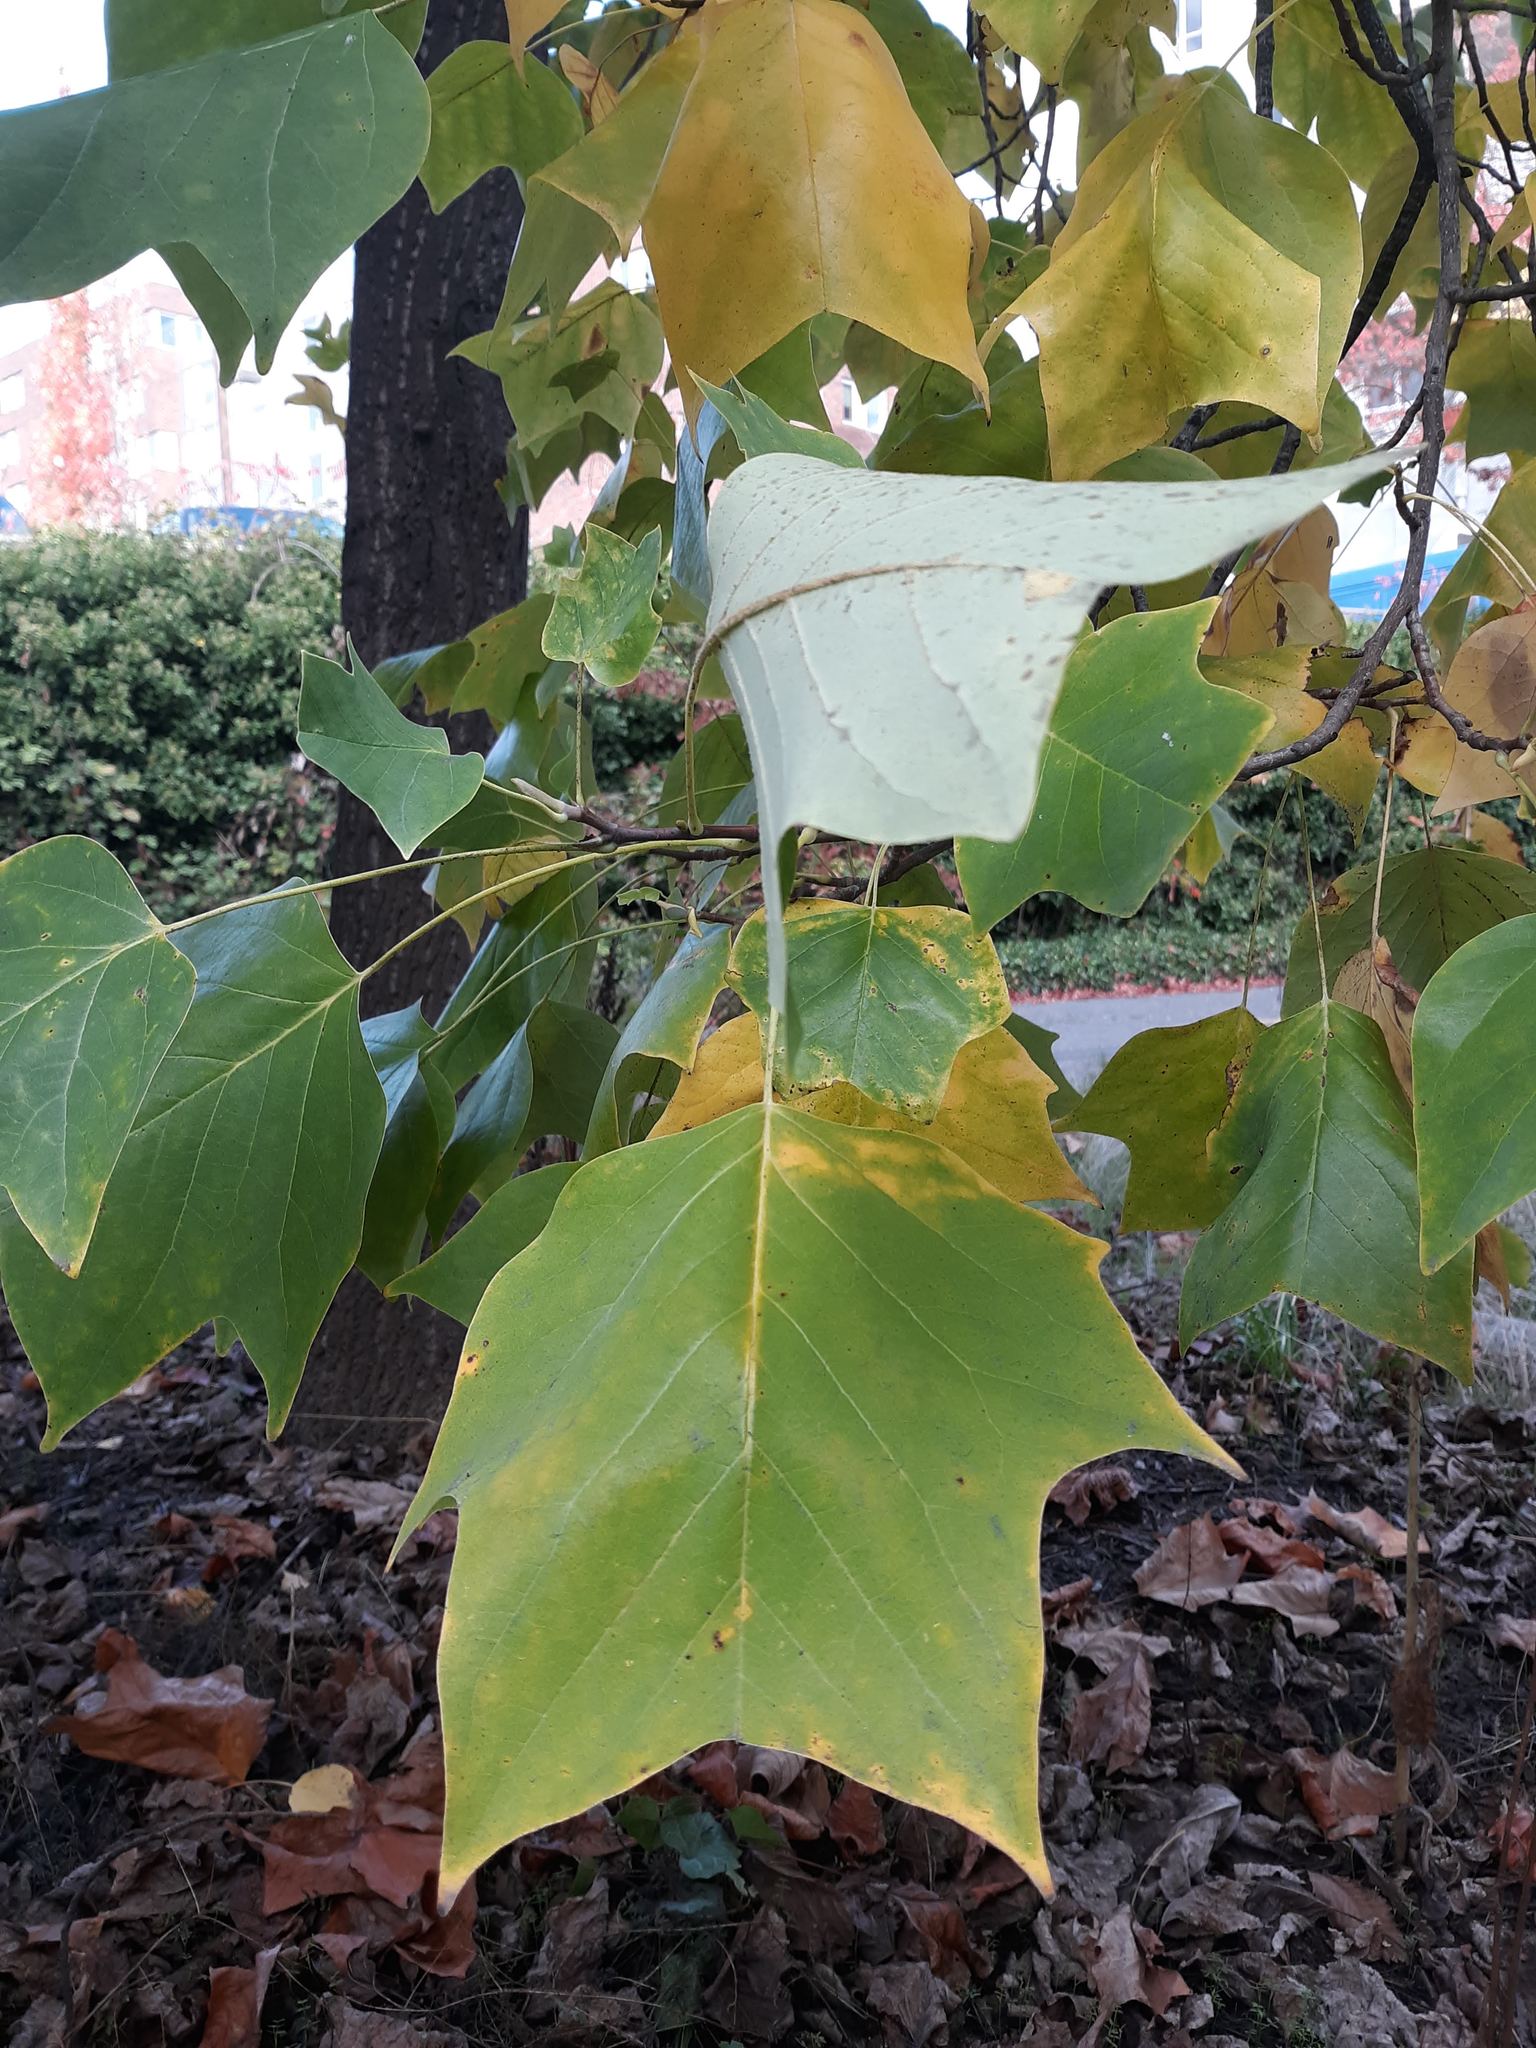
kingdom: Plantae
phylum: Tracheophyta
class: Magnoliopsida
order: Magnoliales
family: Magnoliaceae
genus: Liriodendron
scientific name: Liriodendron tulipifera
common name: Tulip tree
